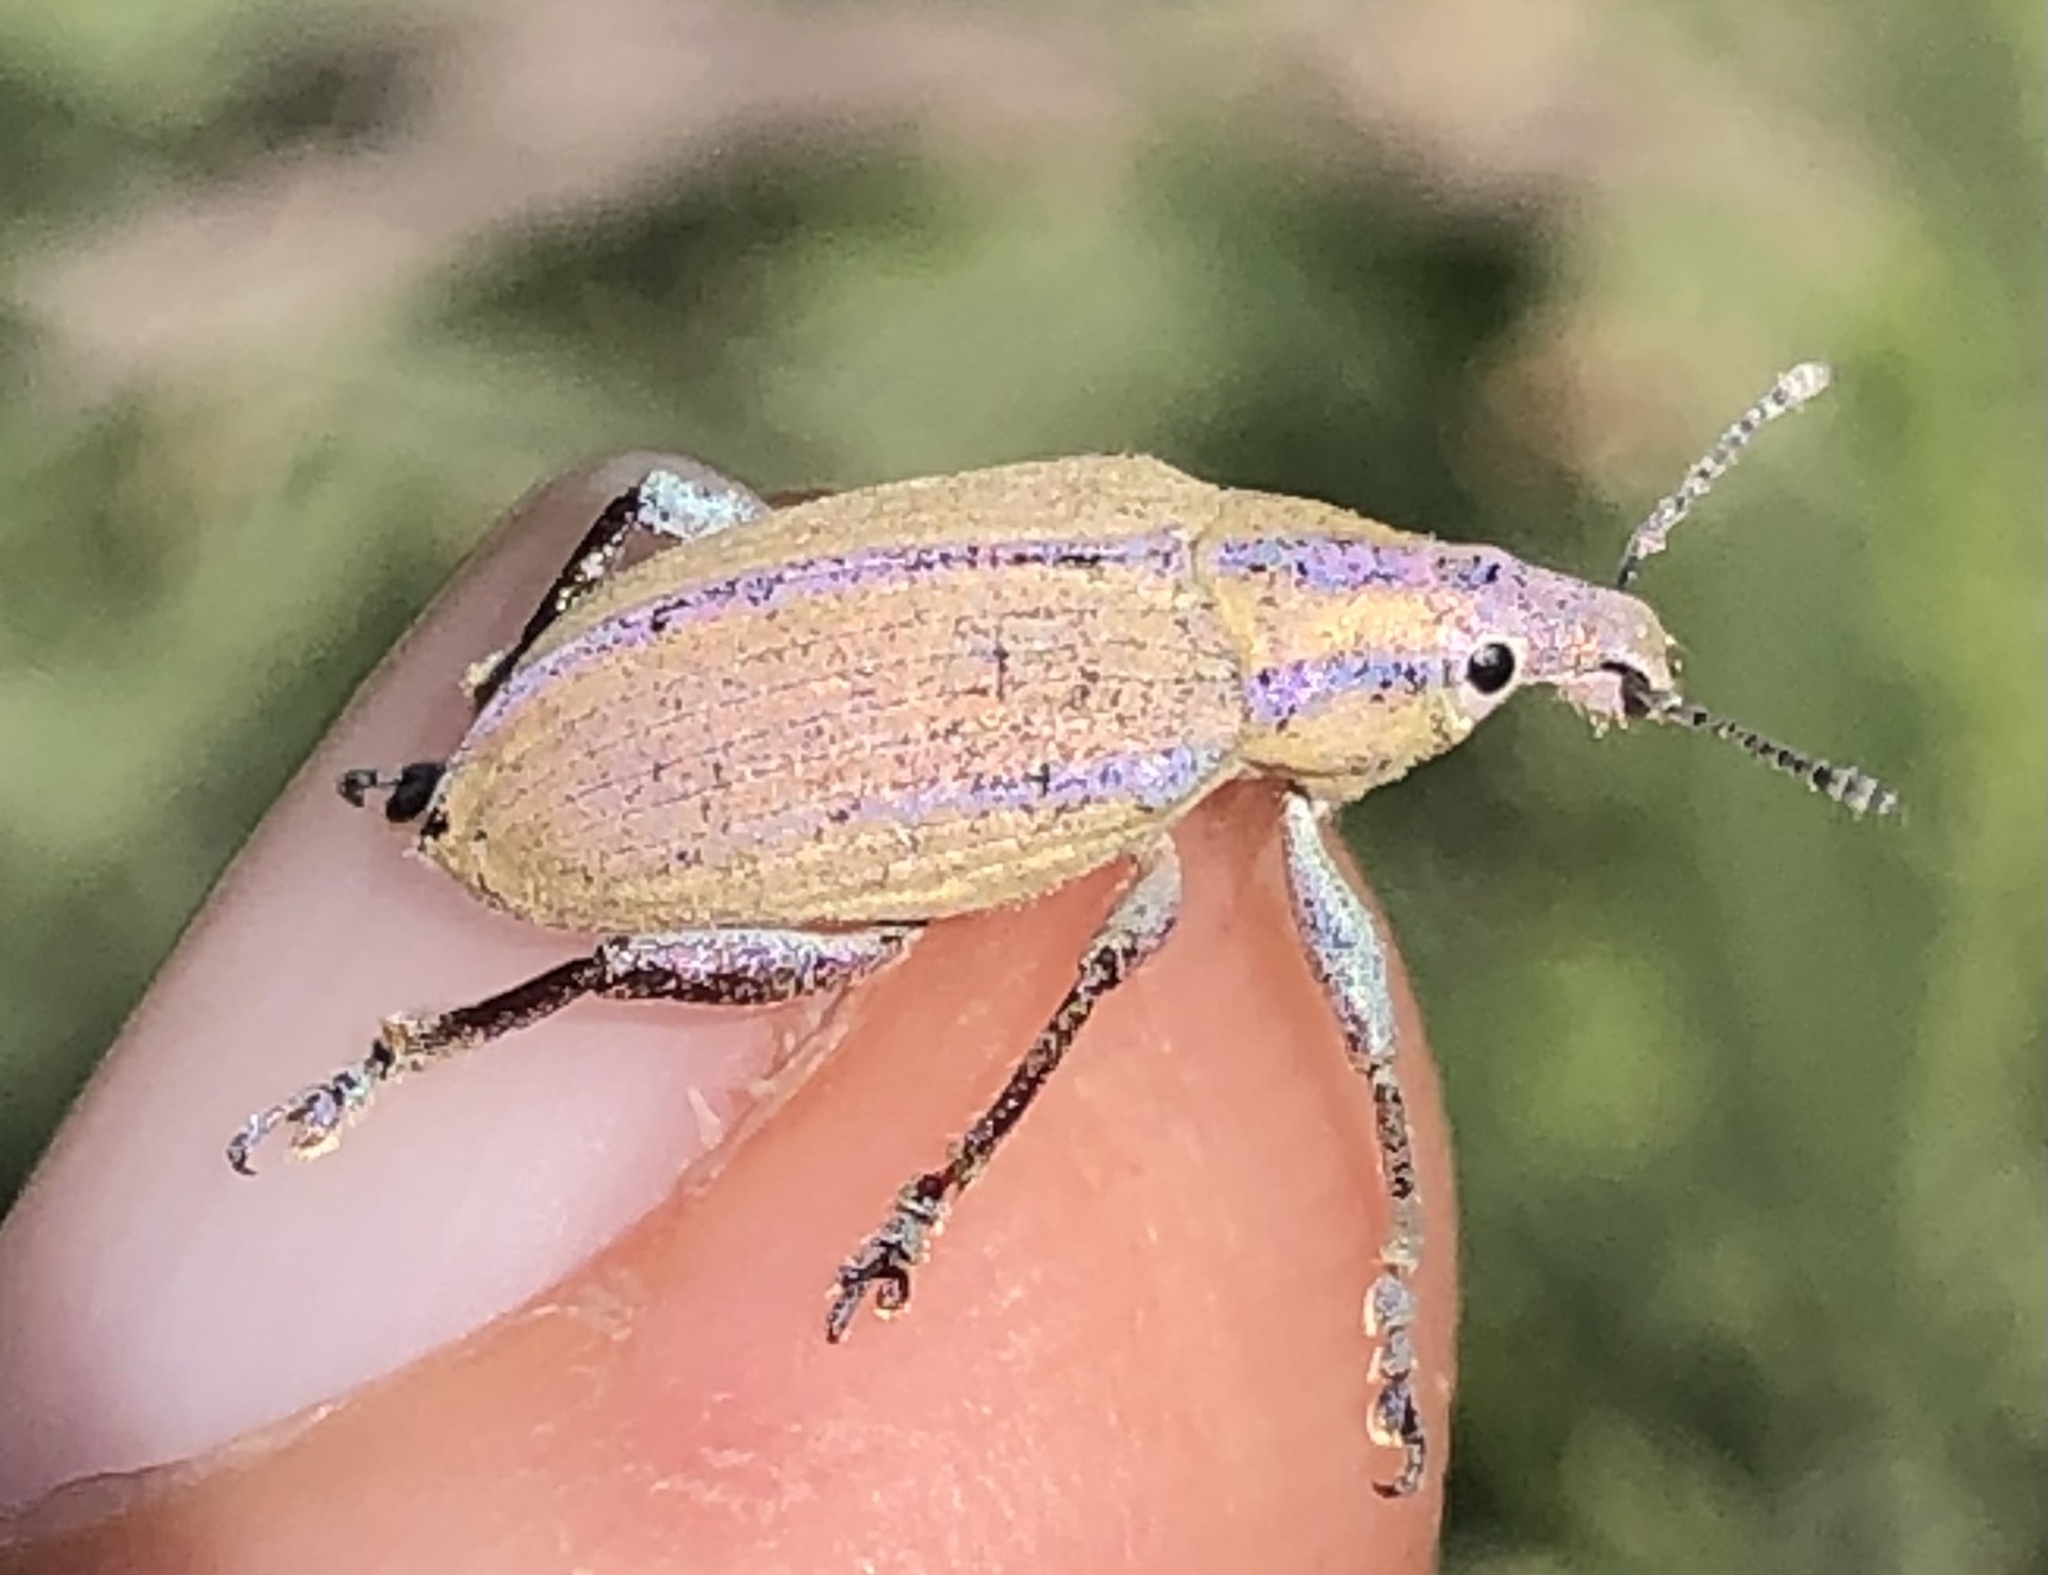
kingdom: Animalia
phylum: Arthropoda
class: Insecta
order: Coleoptera
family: Curculionidae
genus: Platyaspistes
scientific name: Platyaspistes glaucus
